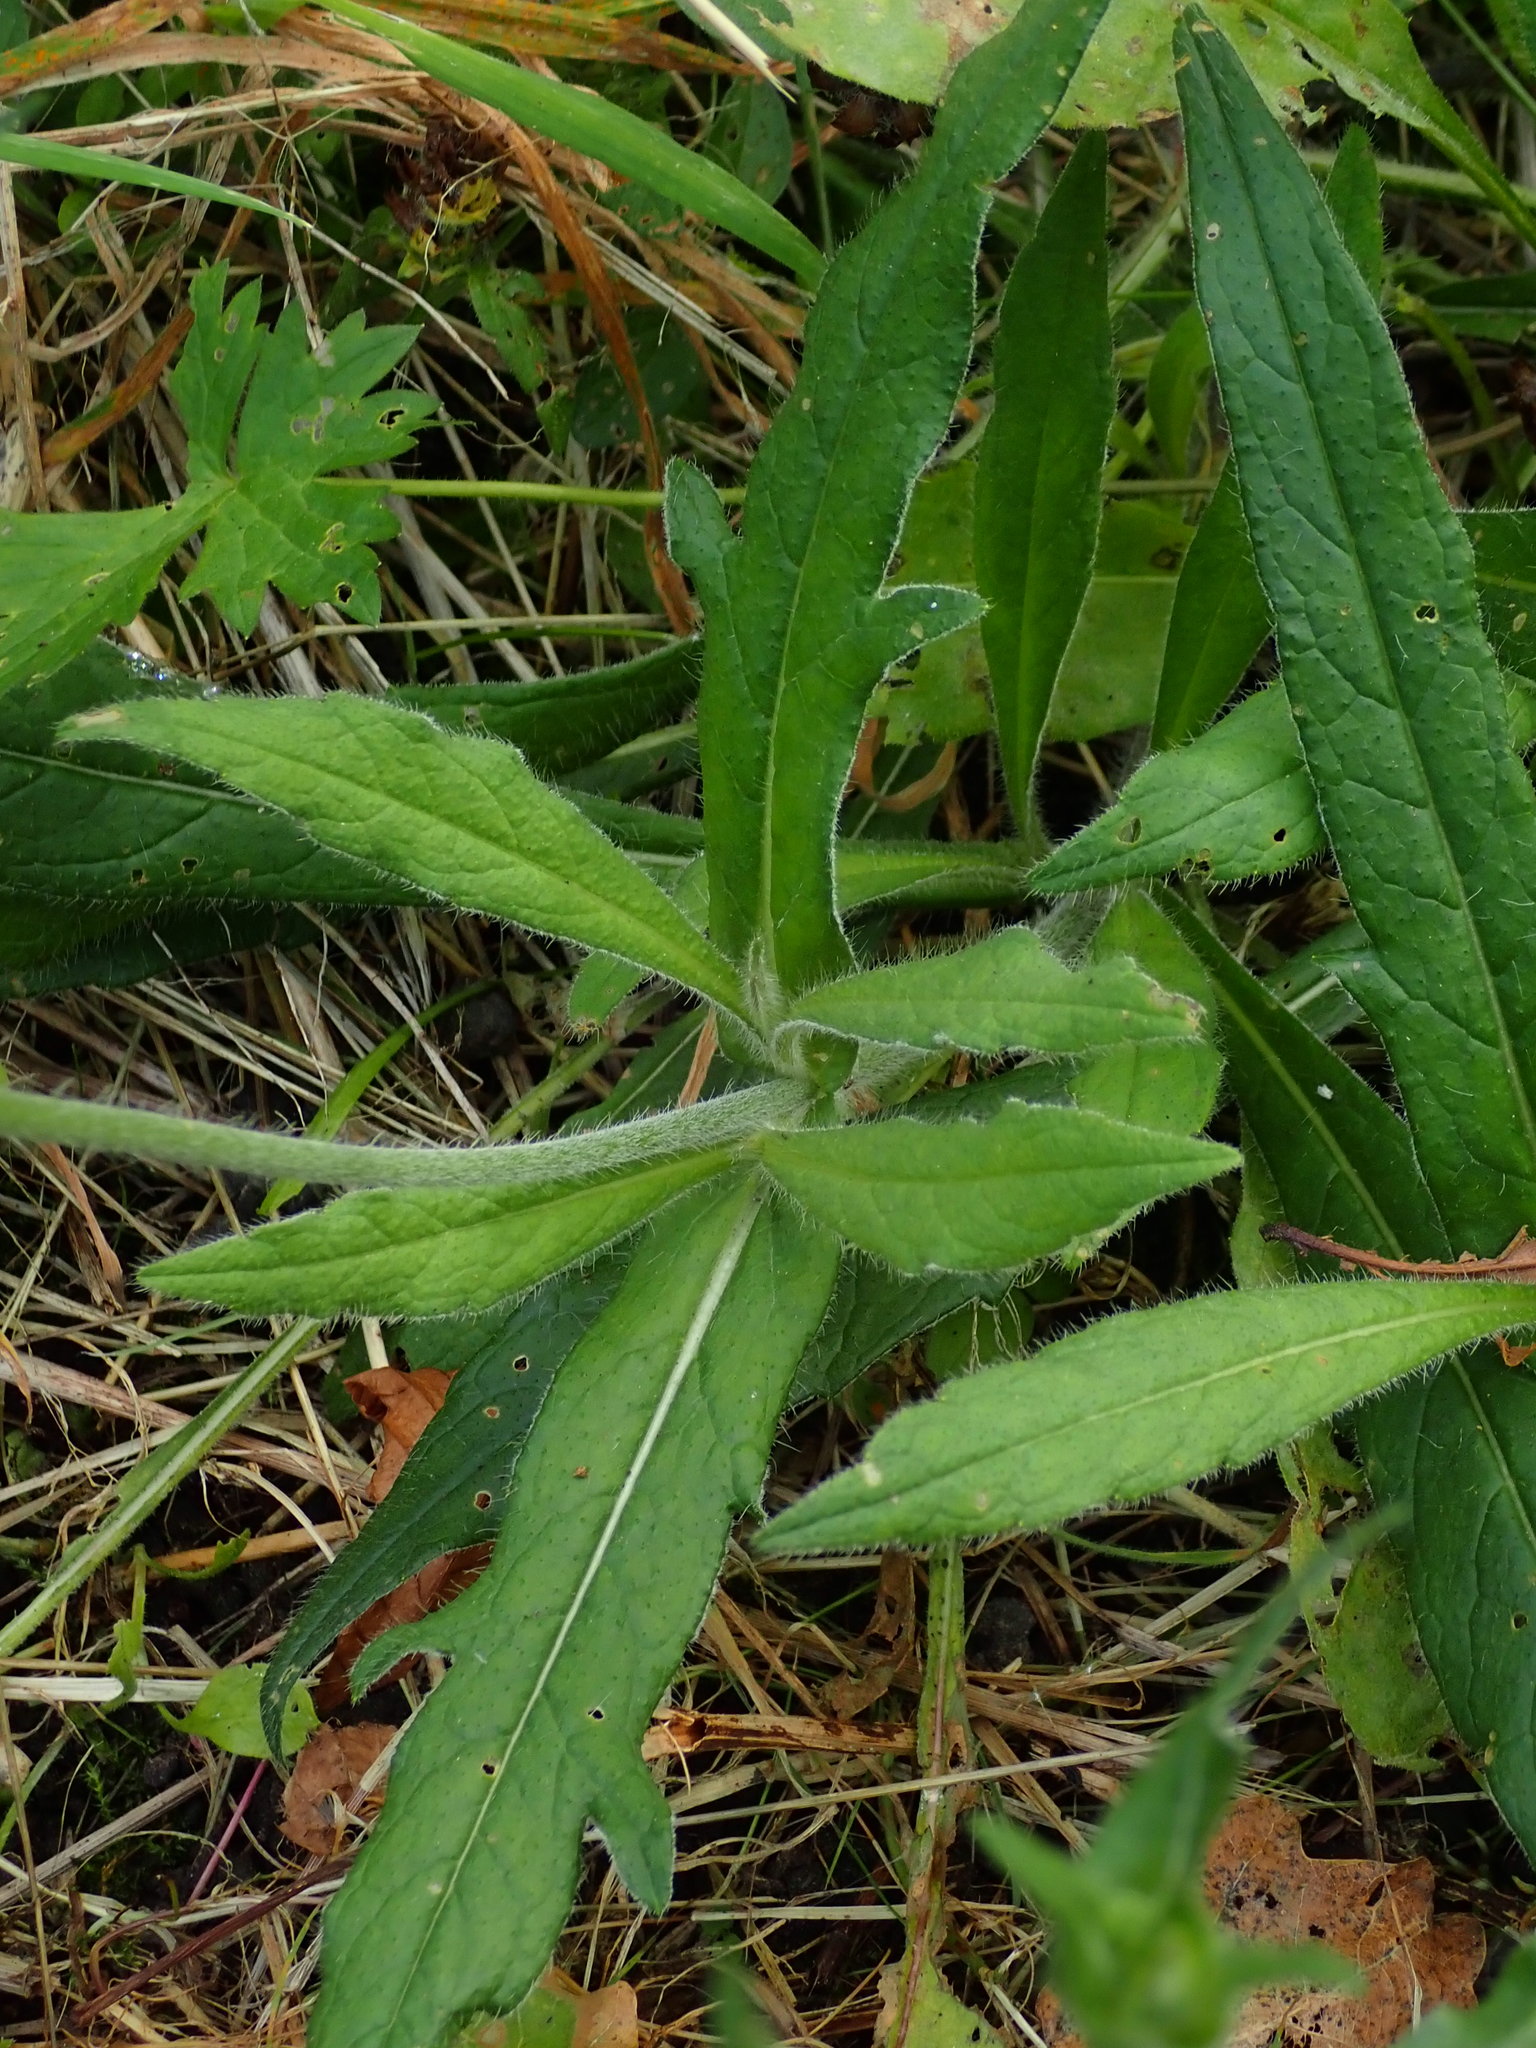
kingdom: Plantae
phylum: Tracheophyta
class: Magnoliopsida
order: Dipsacales
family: Caprifoliaceae
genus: Knautia
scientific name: Knautia arvensis
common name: Field scabiosa
